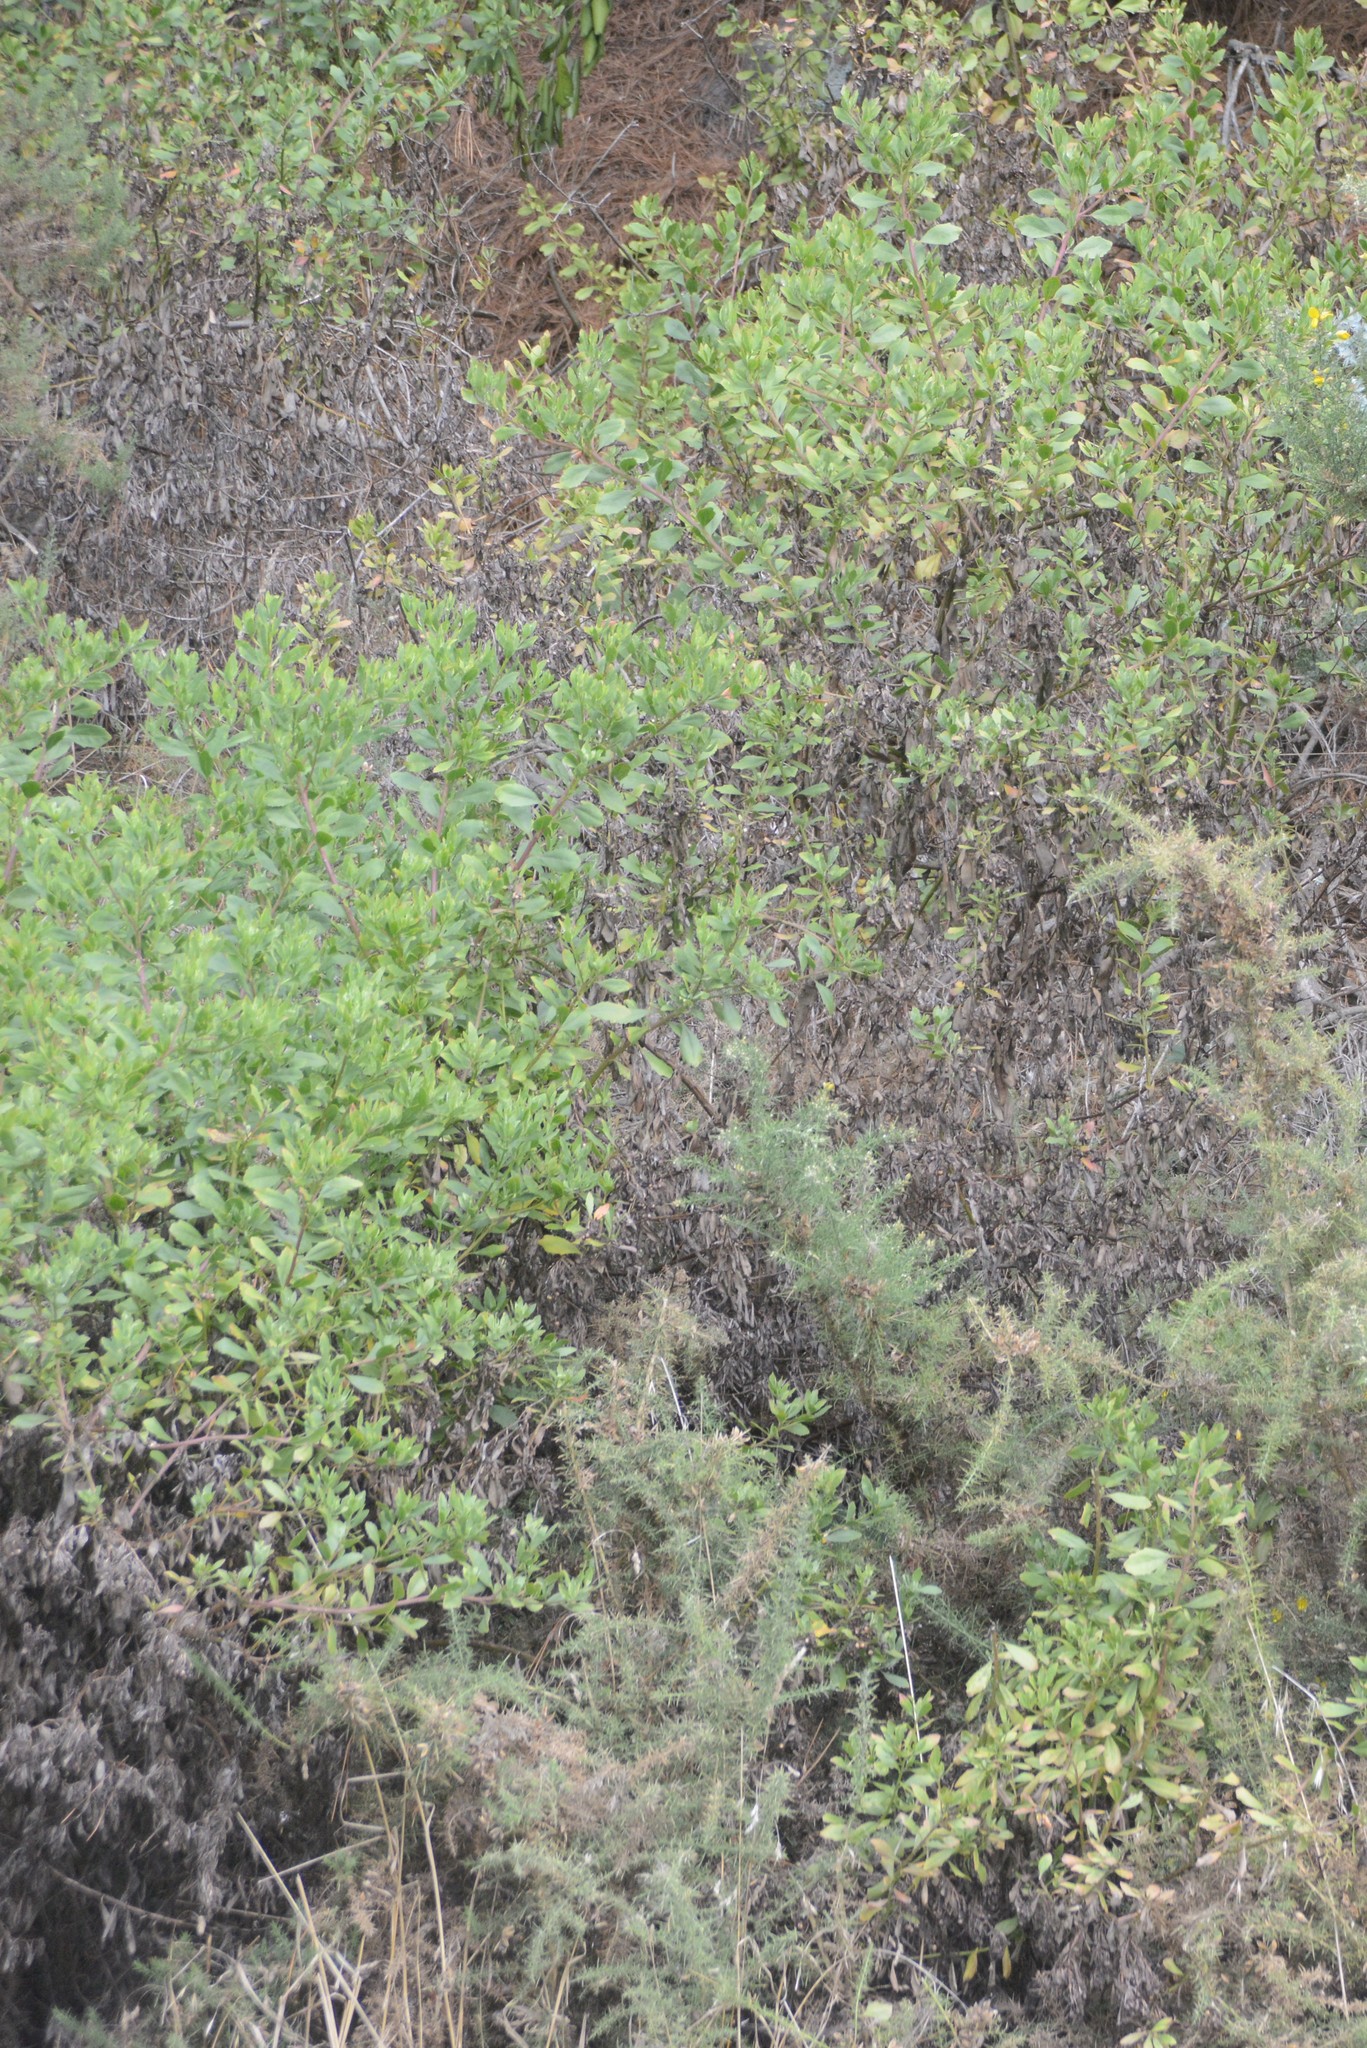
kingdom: Plantae
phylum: Tracheophyta
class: Magnoliopsida
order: Asterales
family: Asteraceae
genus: Osteospermum
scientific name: Osteospermum moniliferum
